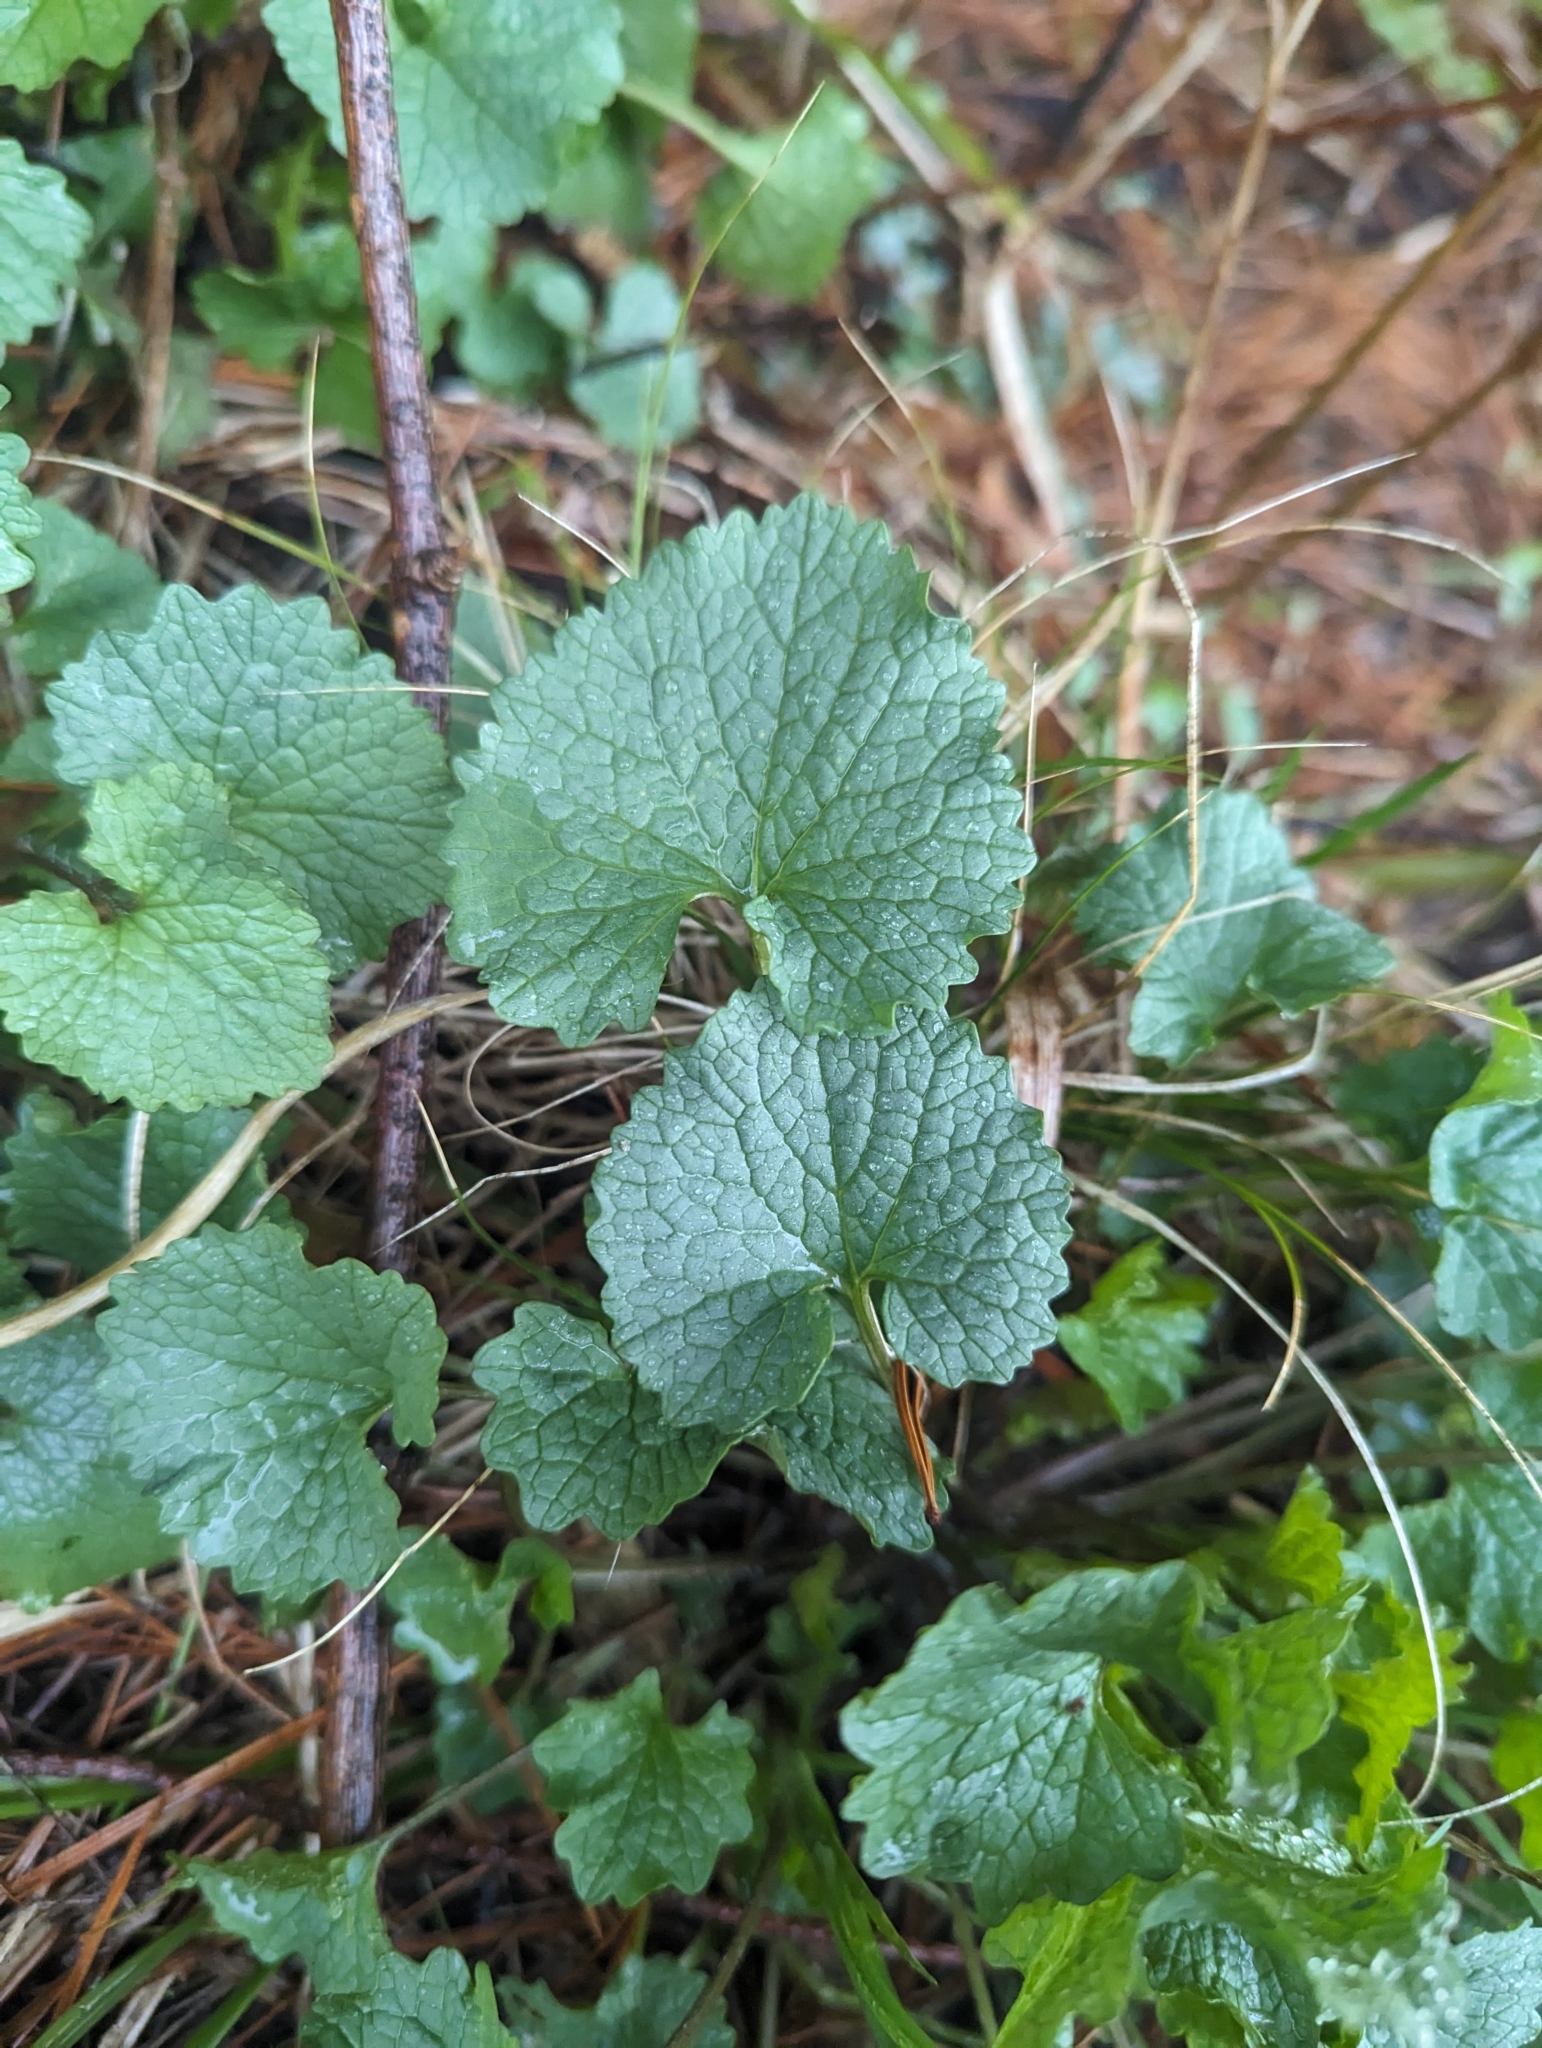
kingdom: Plantae
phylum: Tracheophyta
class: Magnoliopsida
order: Brassicales
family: Brassicaceae
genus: Alliaria
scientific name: Alliaria petiolata
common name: Garlic mustard
